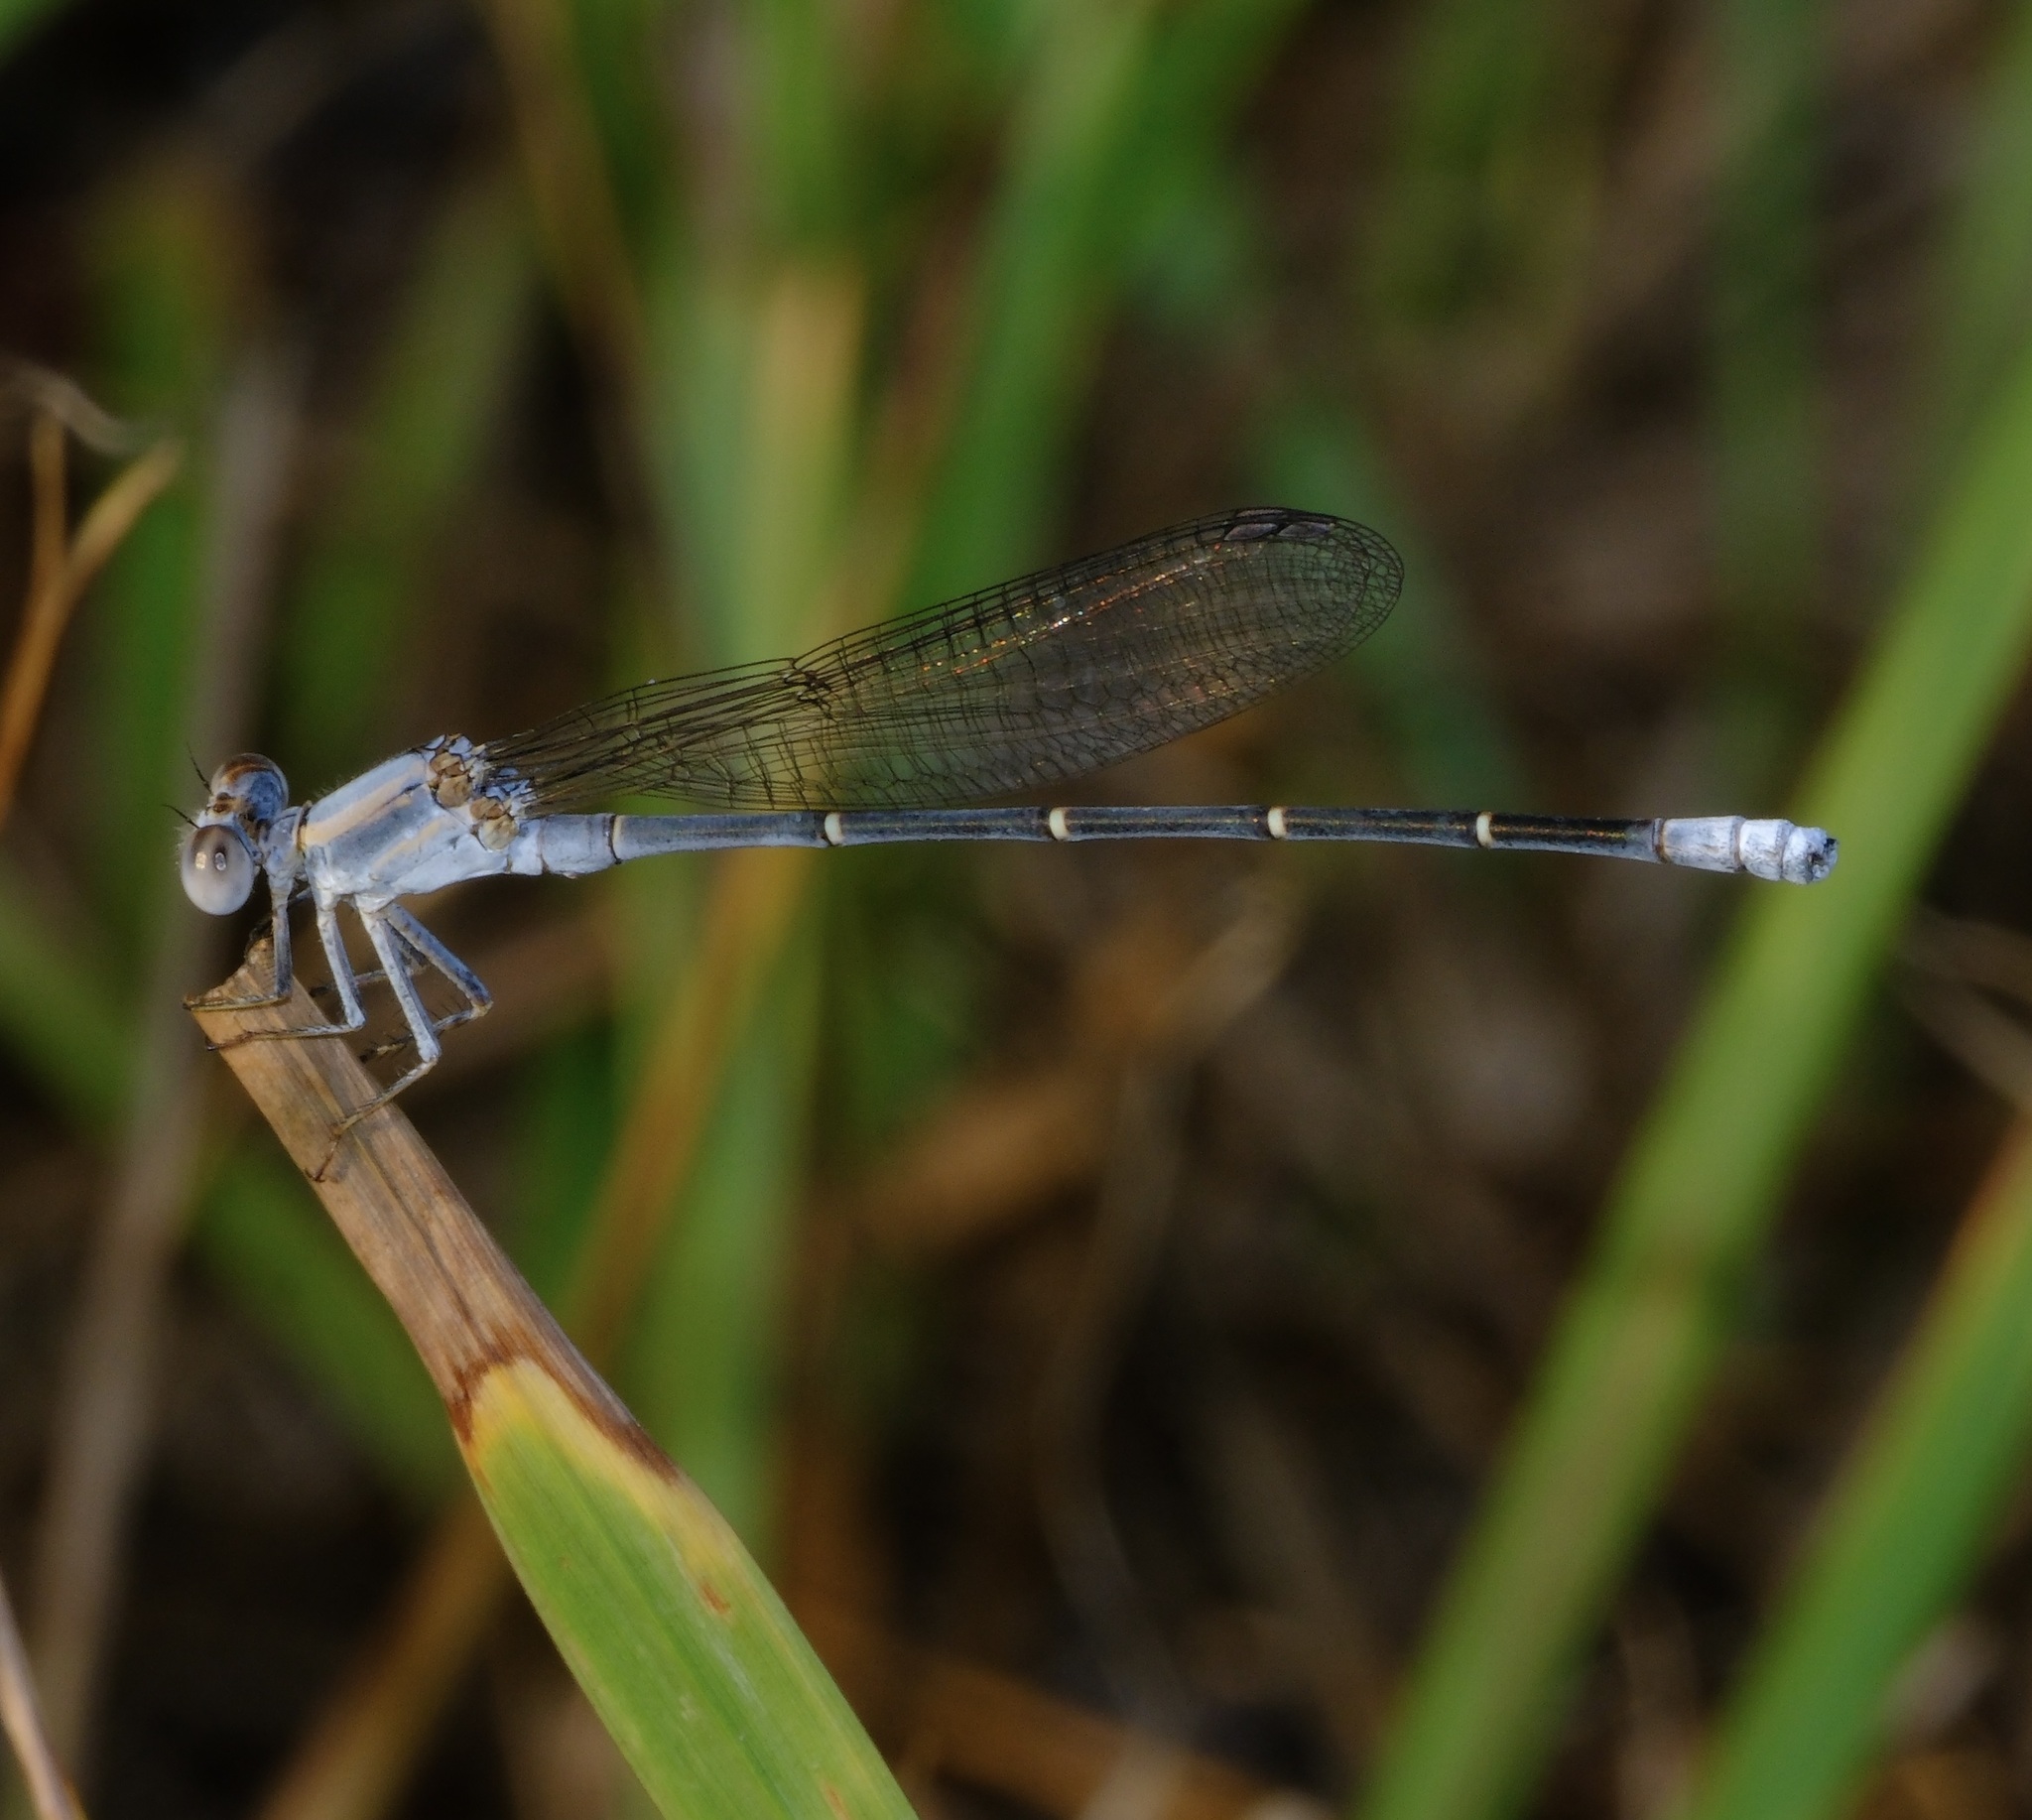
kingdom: Animalia
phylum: Arthropoda
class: Insecta
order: Odonata
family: Coenagrionidae
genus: Argia
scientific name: Argia moesta
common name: Powdered dancer
